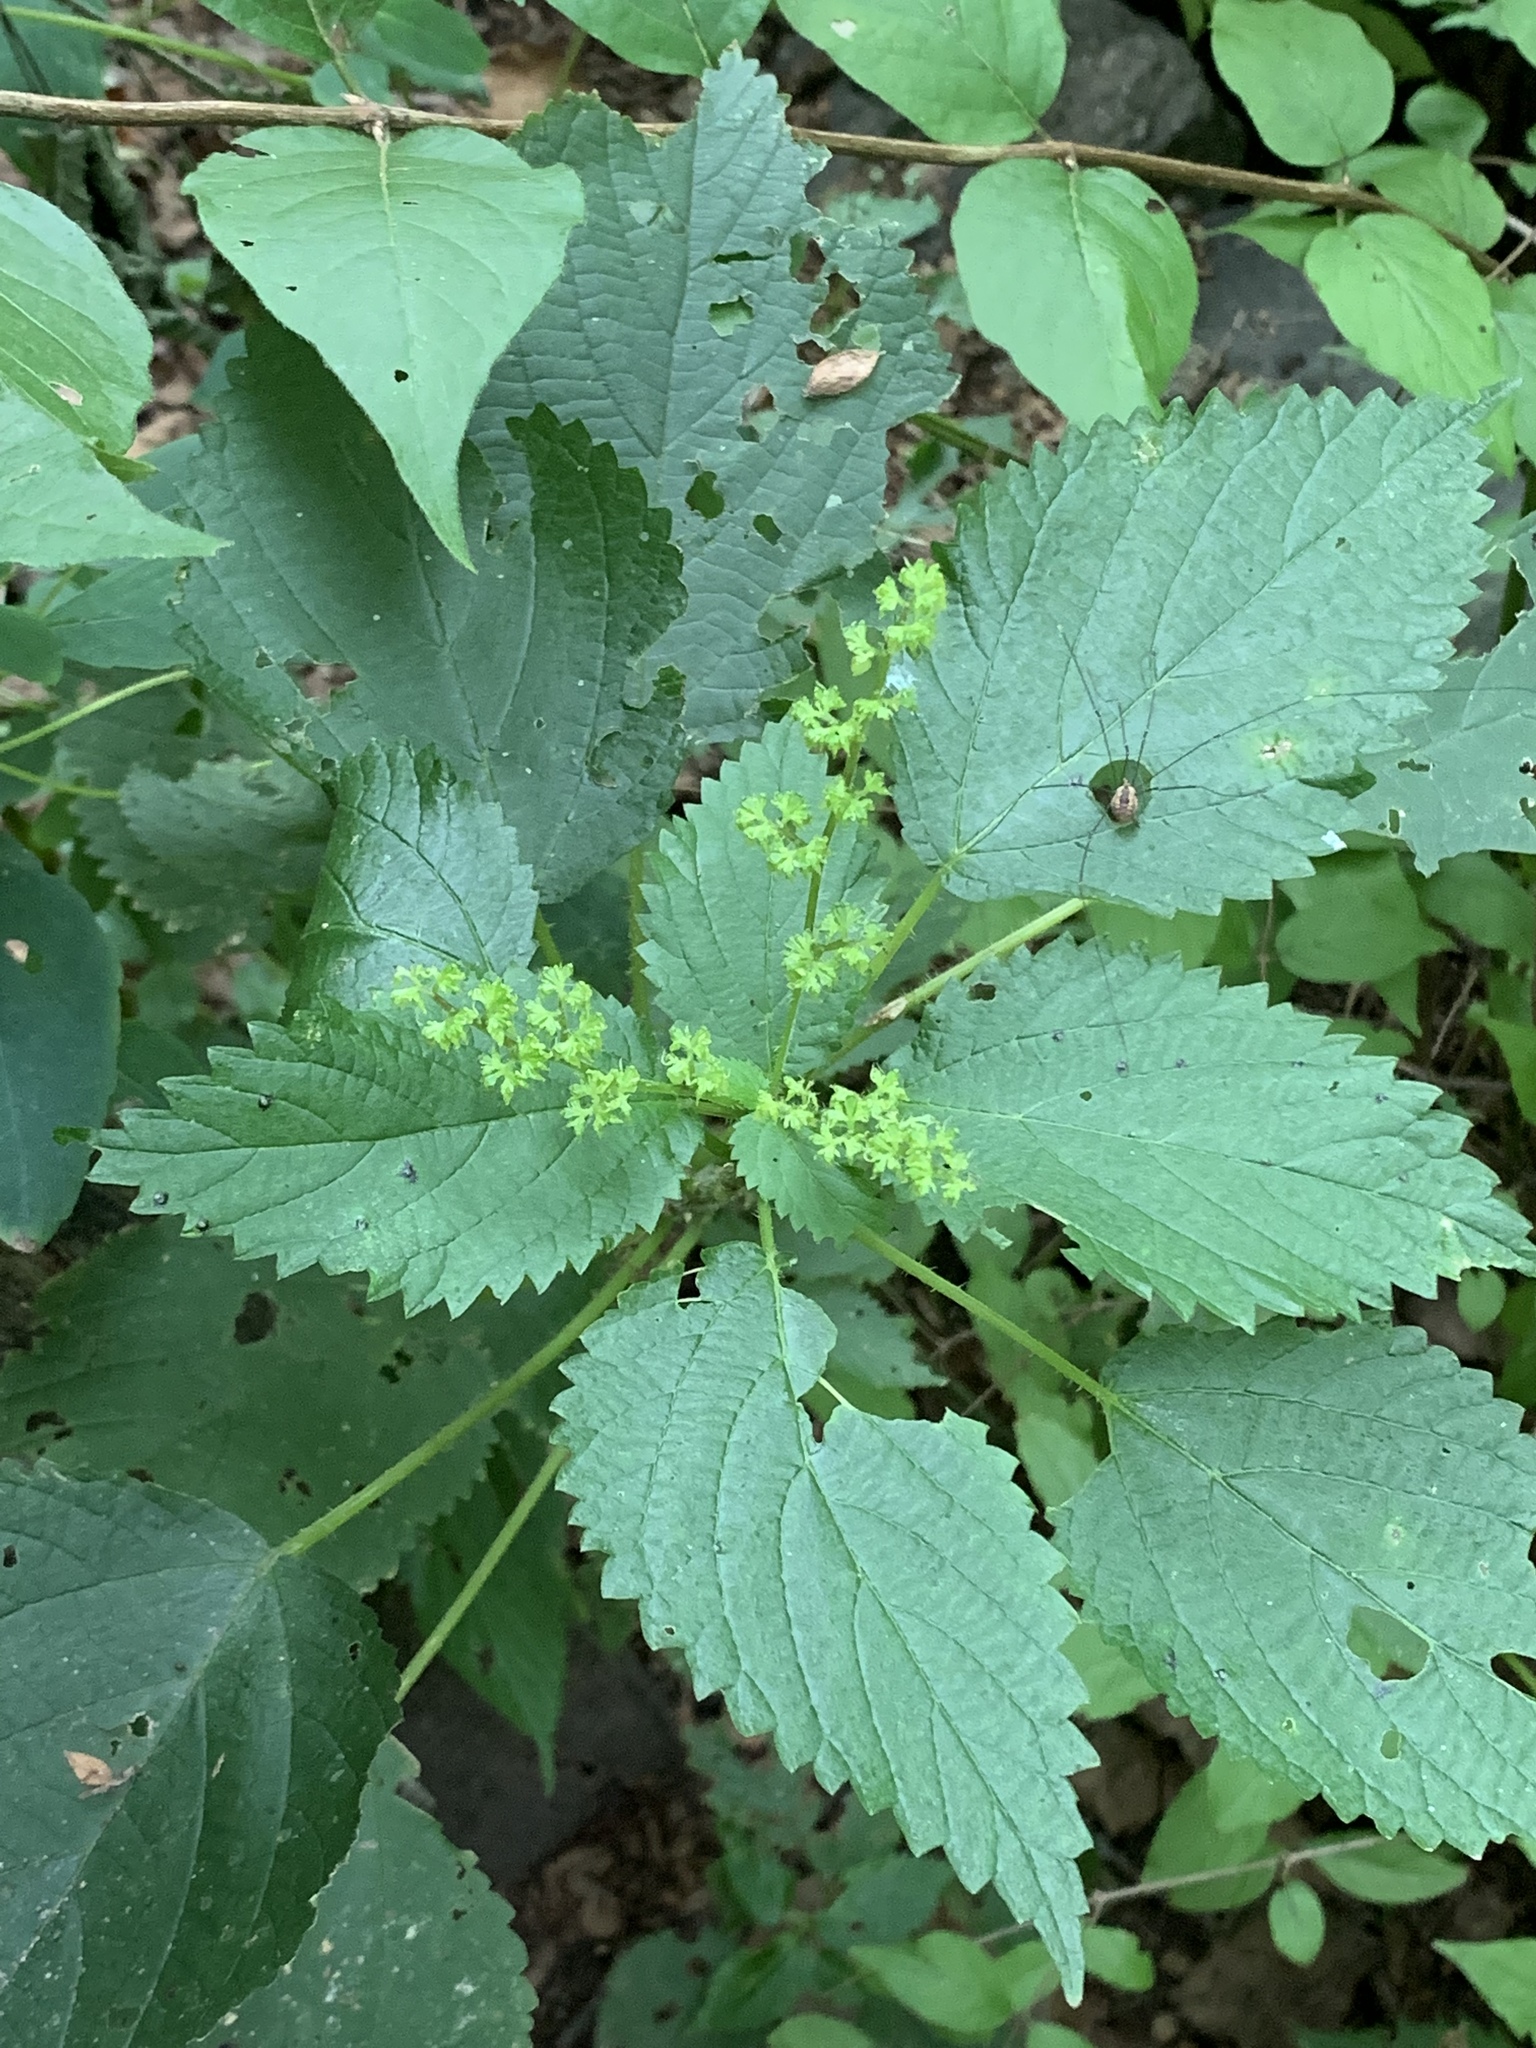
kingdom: Plantae
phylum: Tracheophyta
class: Magnoliopsida
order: Rosales
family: Urticaceae
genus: Laportea
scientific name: Laportea canadensis
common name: Canada nettle
